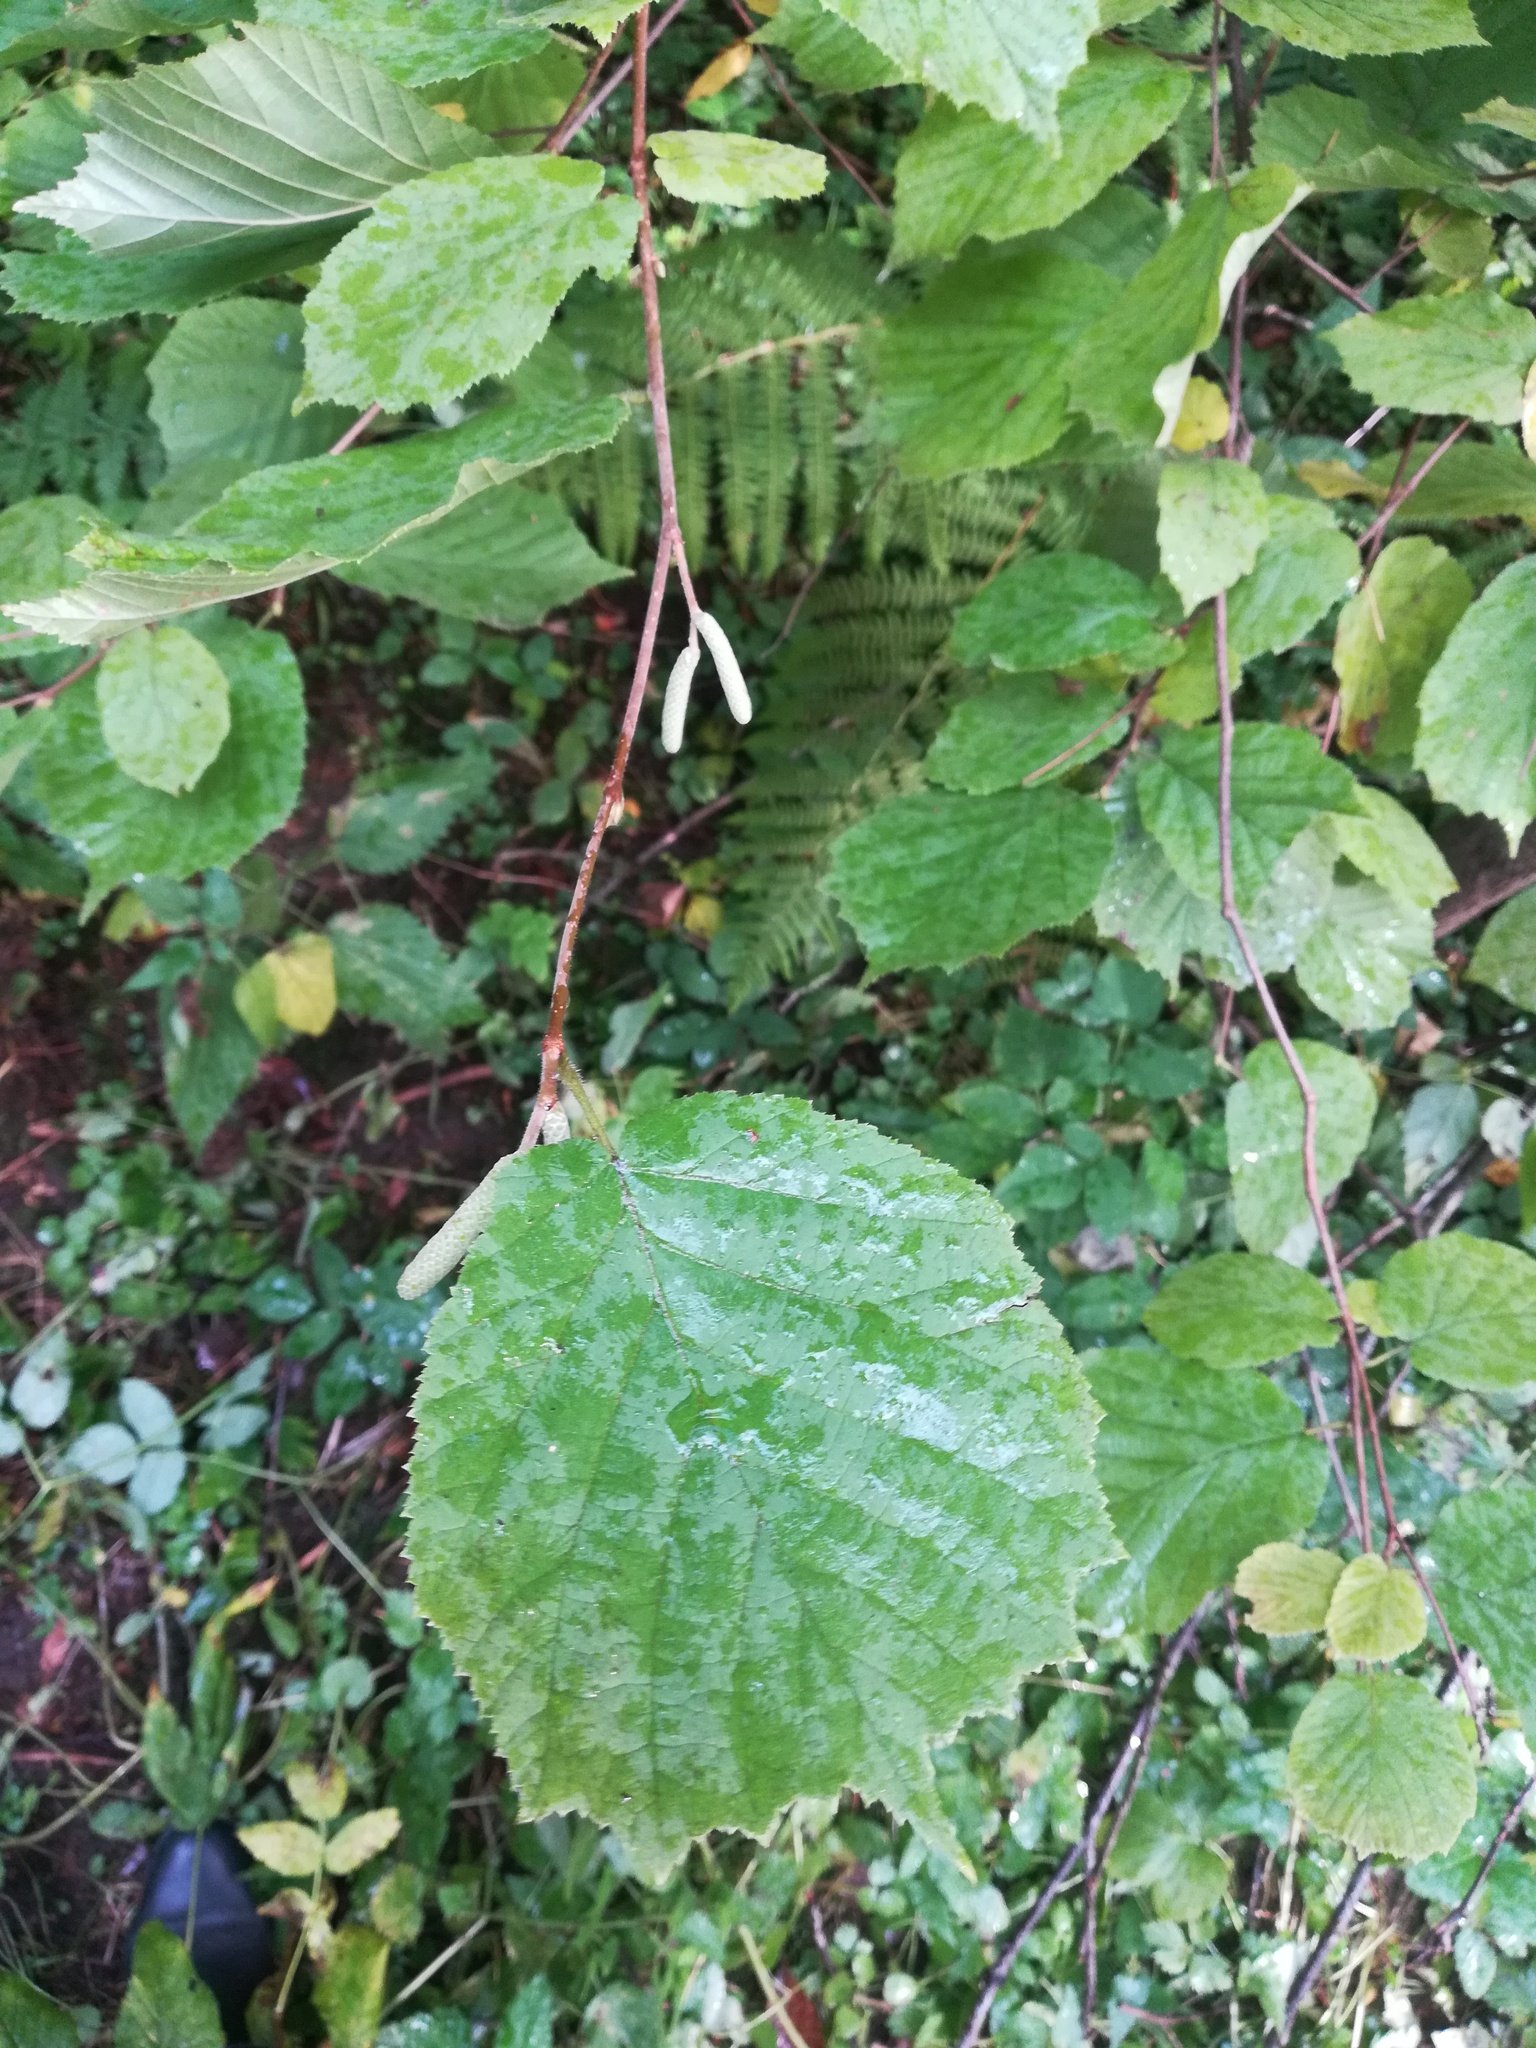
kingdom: Plantae
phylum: Tracheophyta
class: Magnoliopsida
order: Fagales
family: Betulaceae
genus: Corylus
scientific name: Corylus avellana
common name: European hazel
